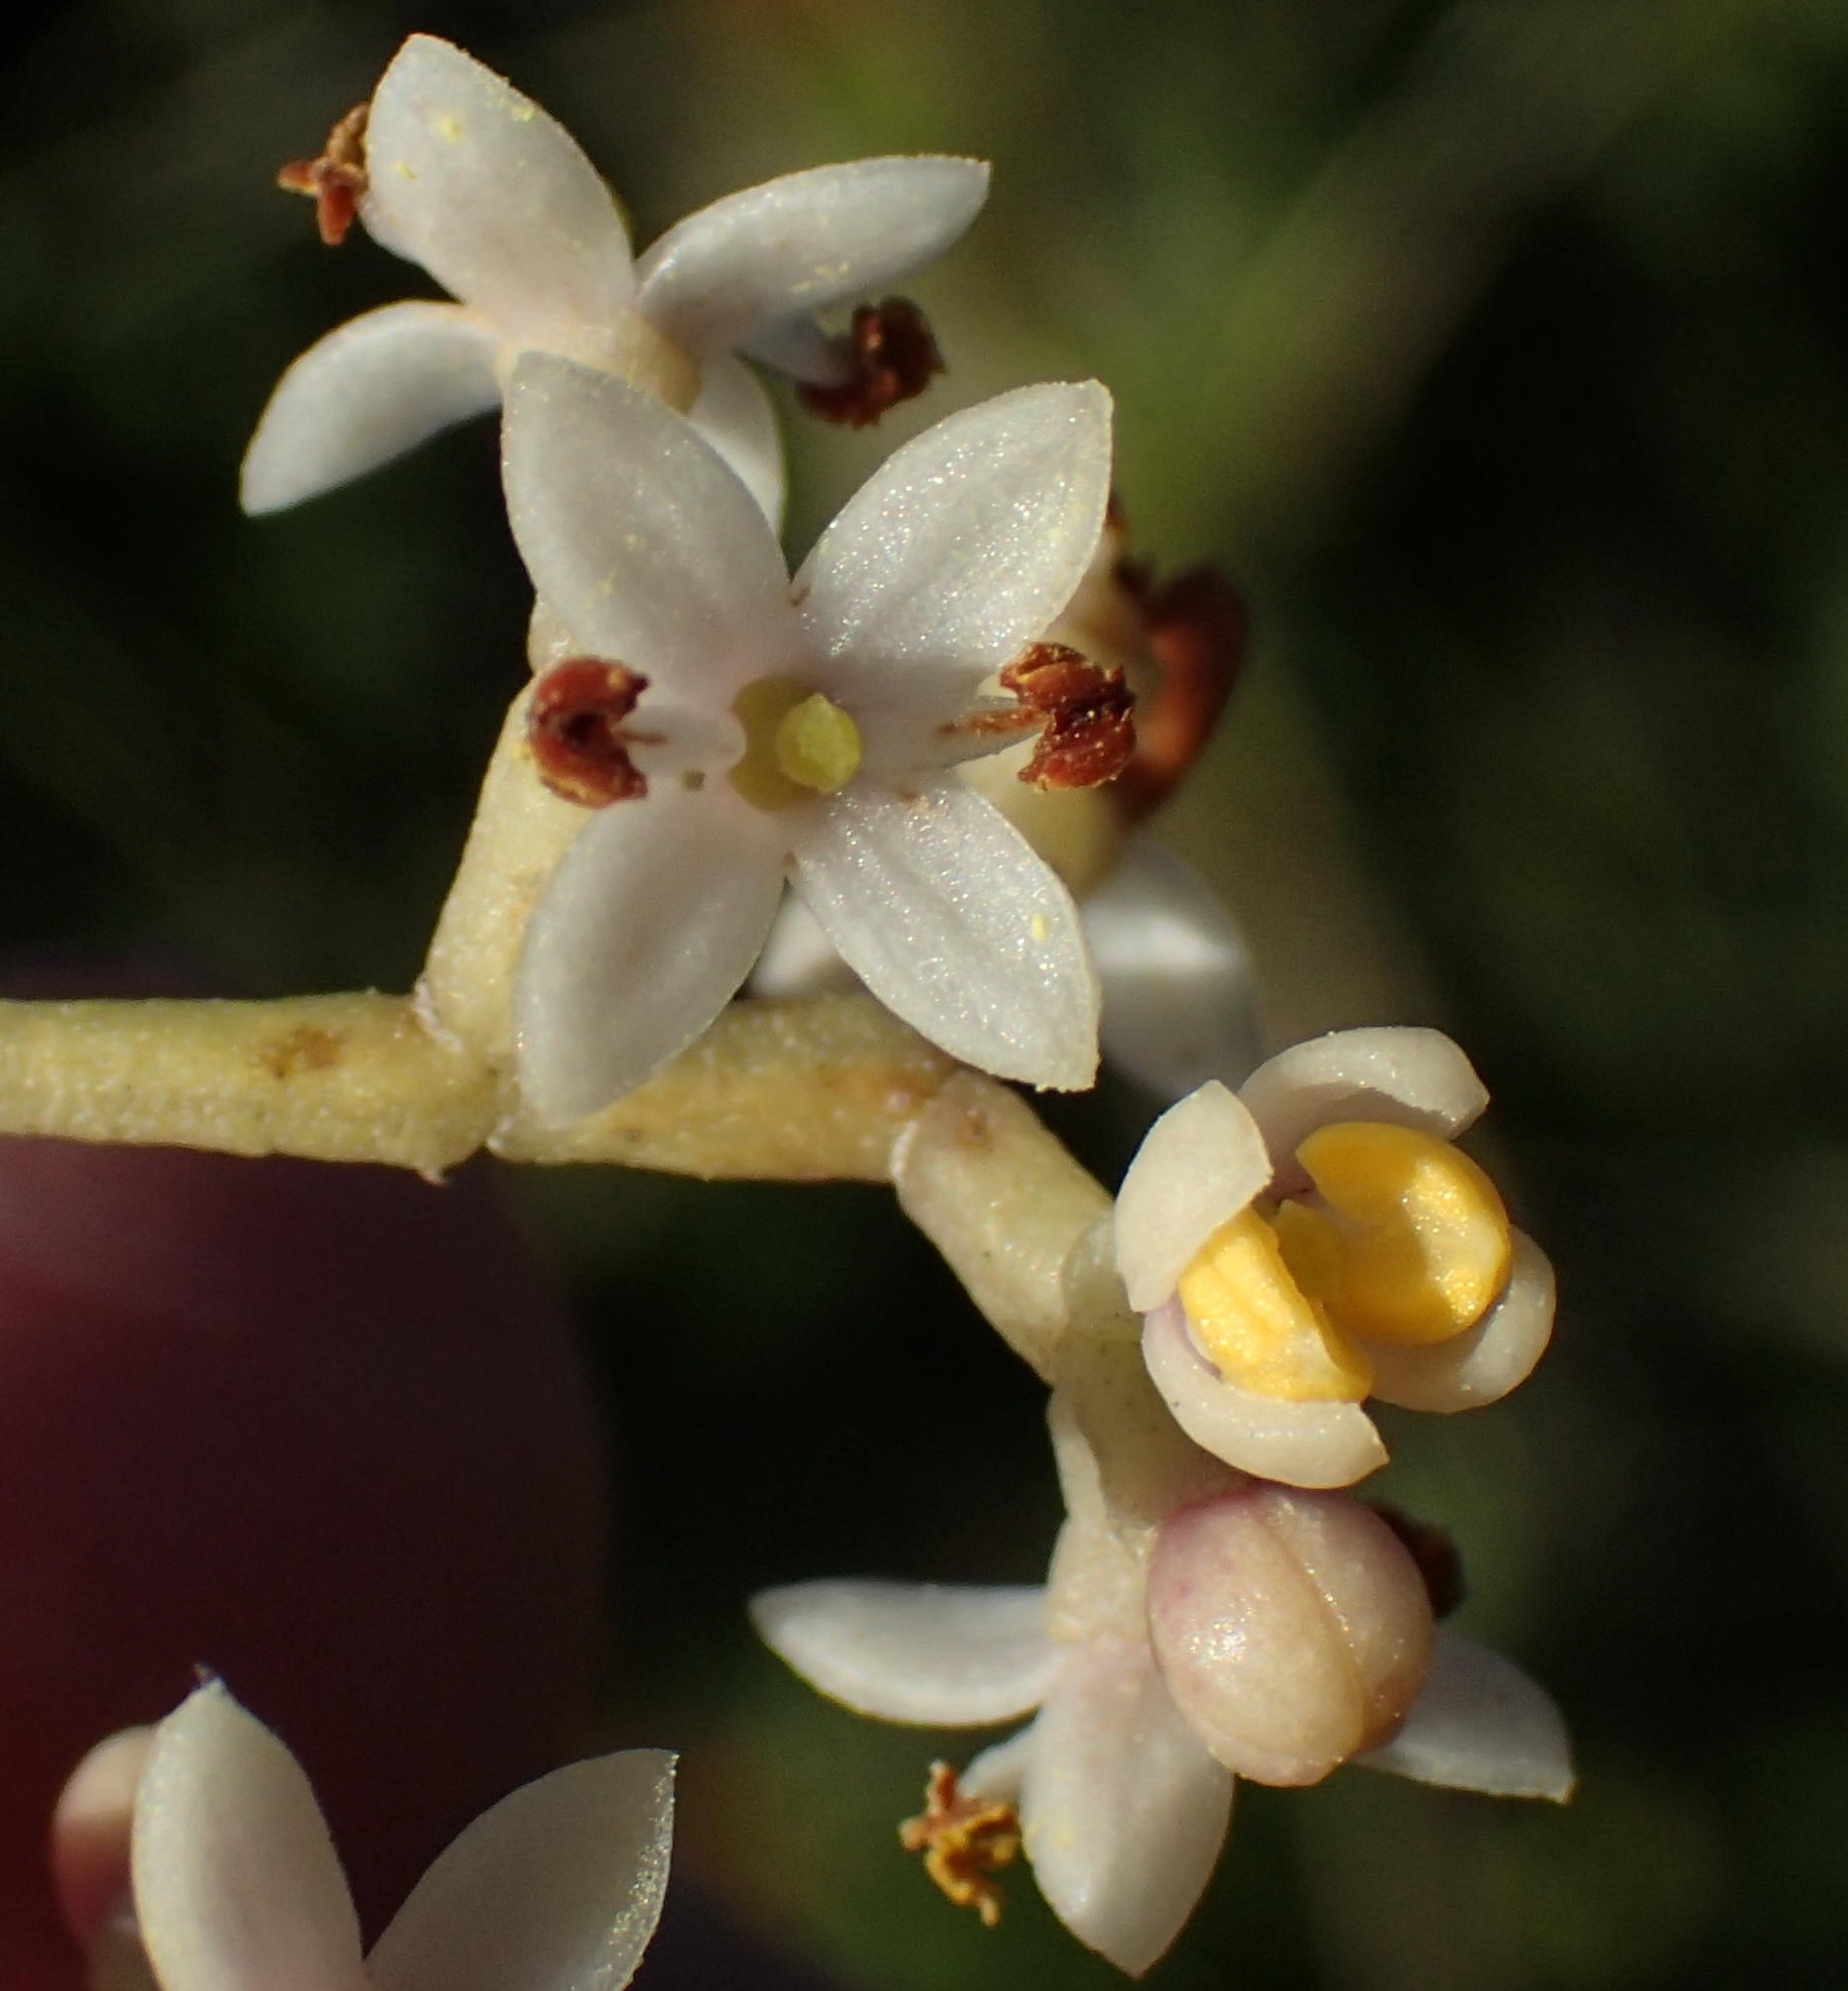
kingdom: Plantae
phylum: Tracheophyta
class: Magnoliopsida
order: Lamiales
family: Oleaceae
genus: Olea
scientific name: Olea exasperata
